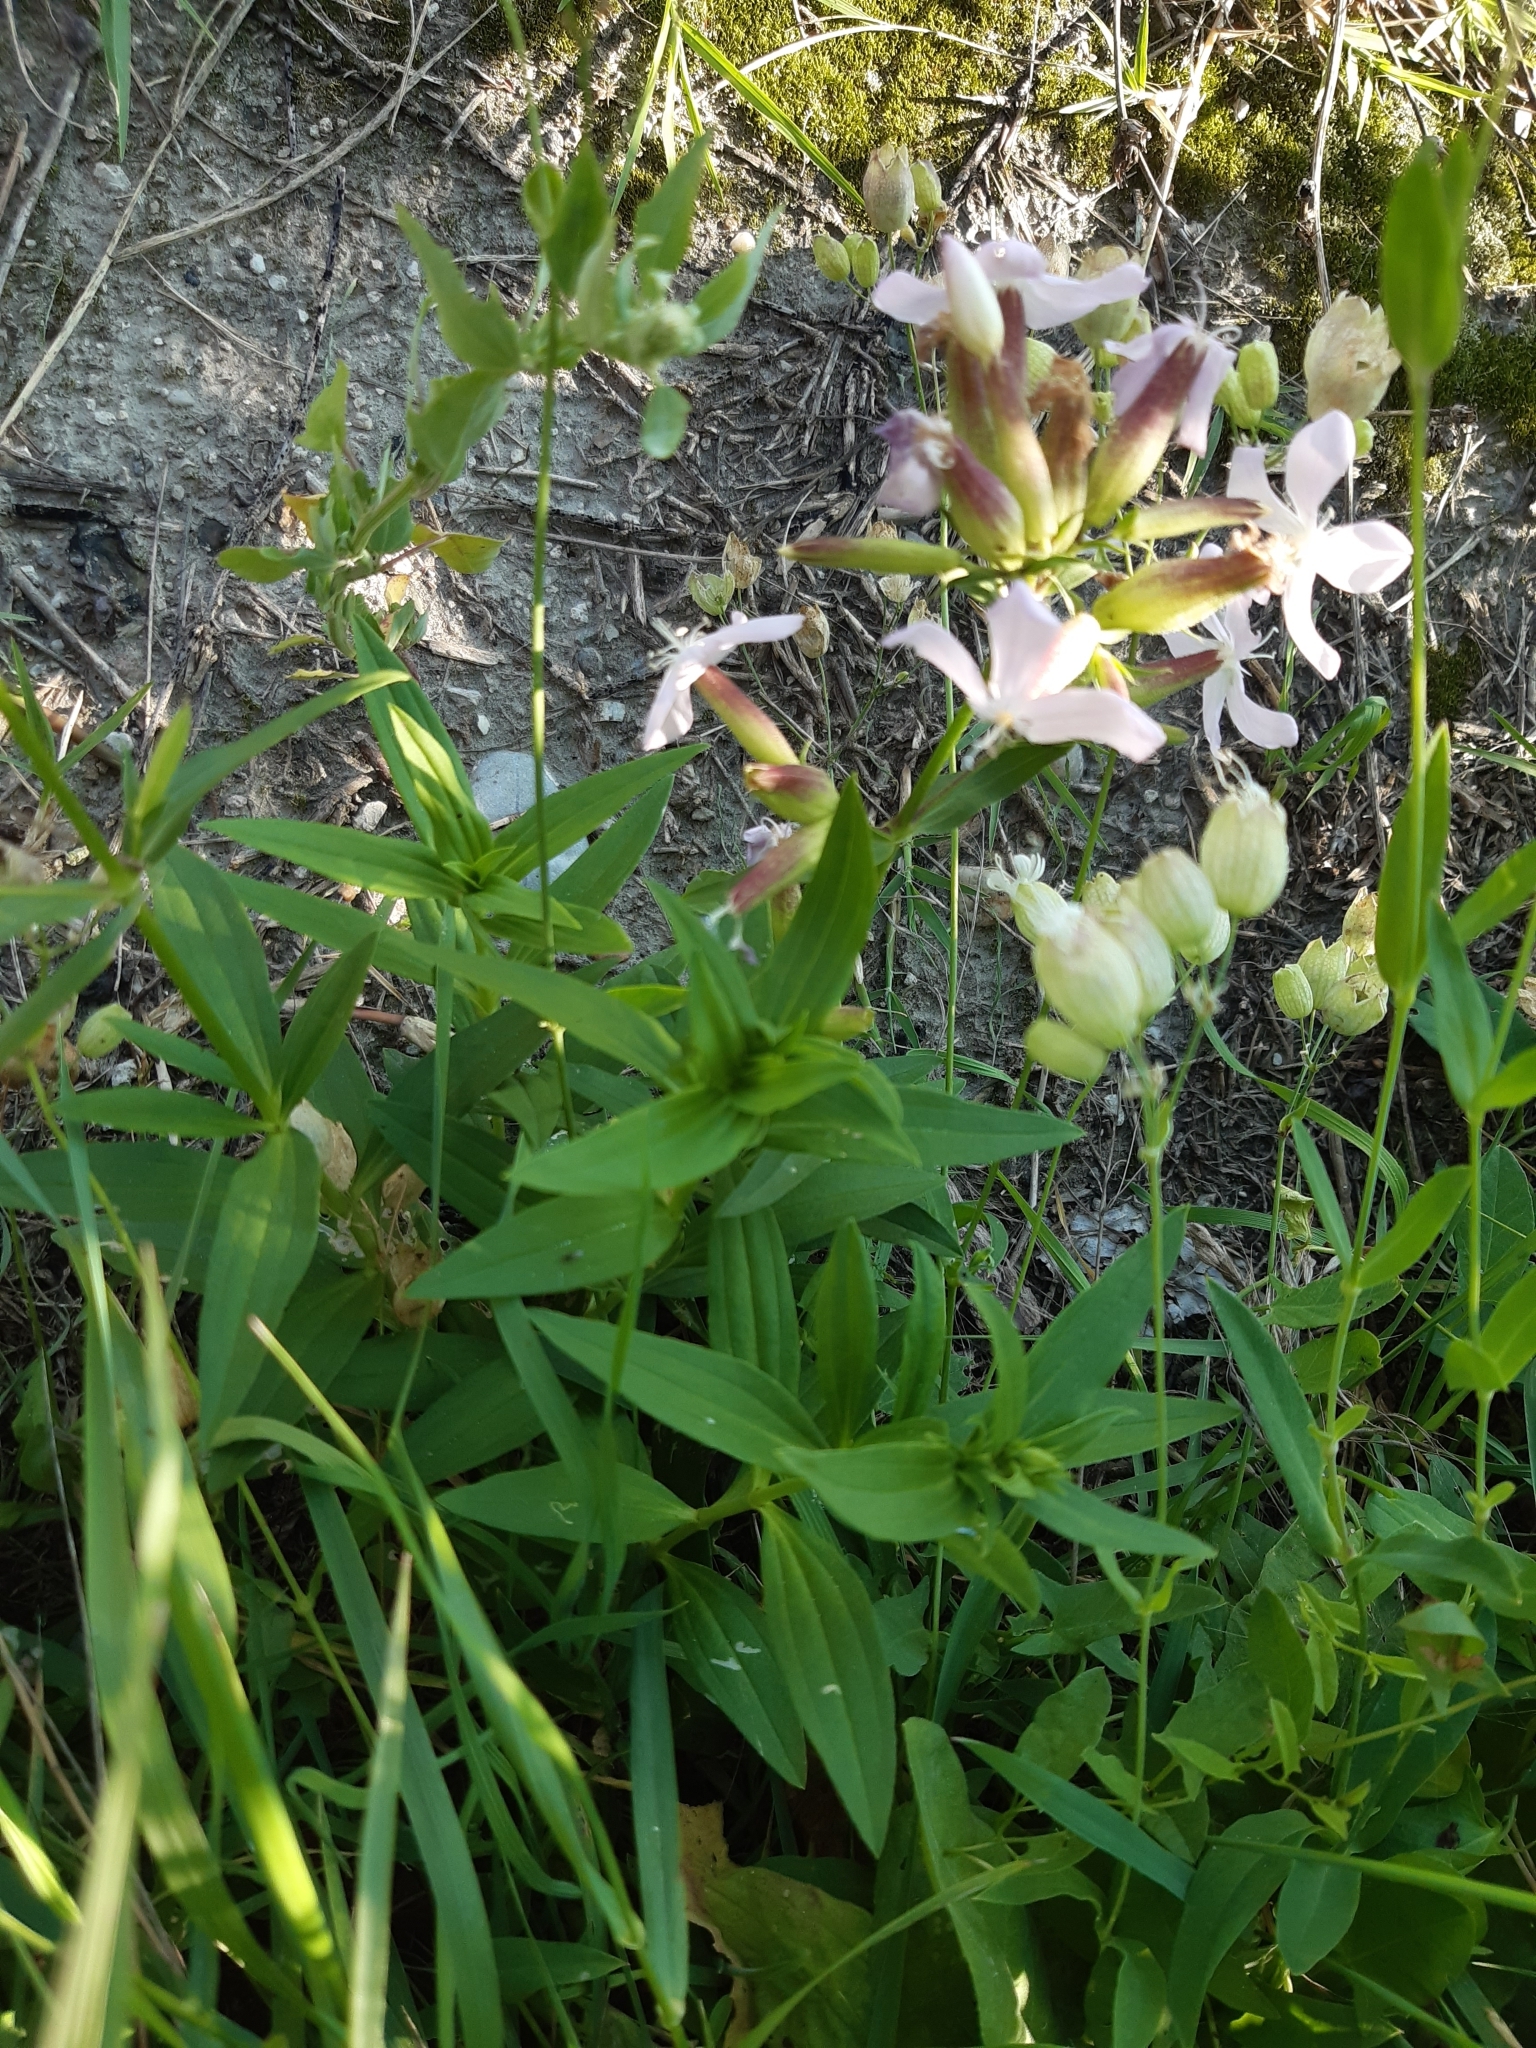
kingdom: Plantae
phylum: Tracheophyta
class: Magnoliopsida
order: Caryophyllales
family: Caryophyllaceae
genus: Saponaria
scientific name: Saponaria officinalis
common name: Soapwort
